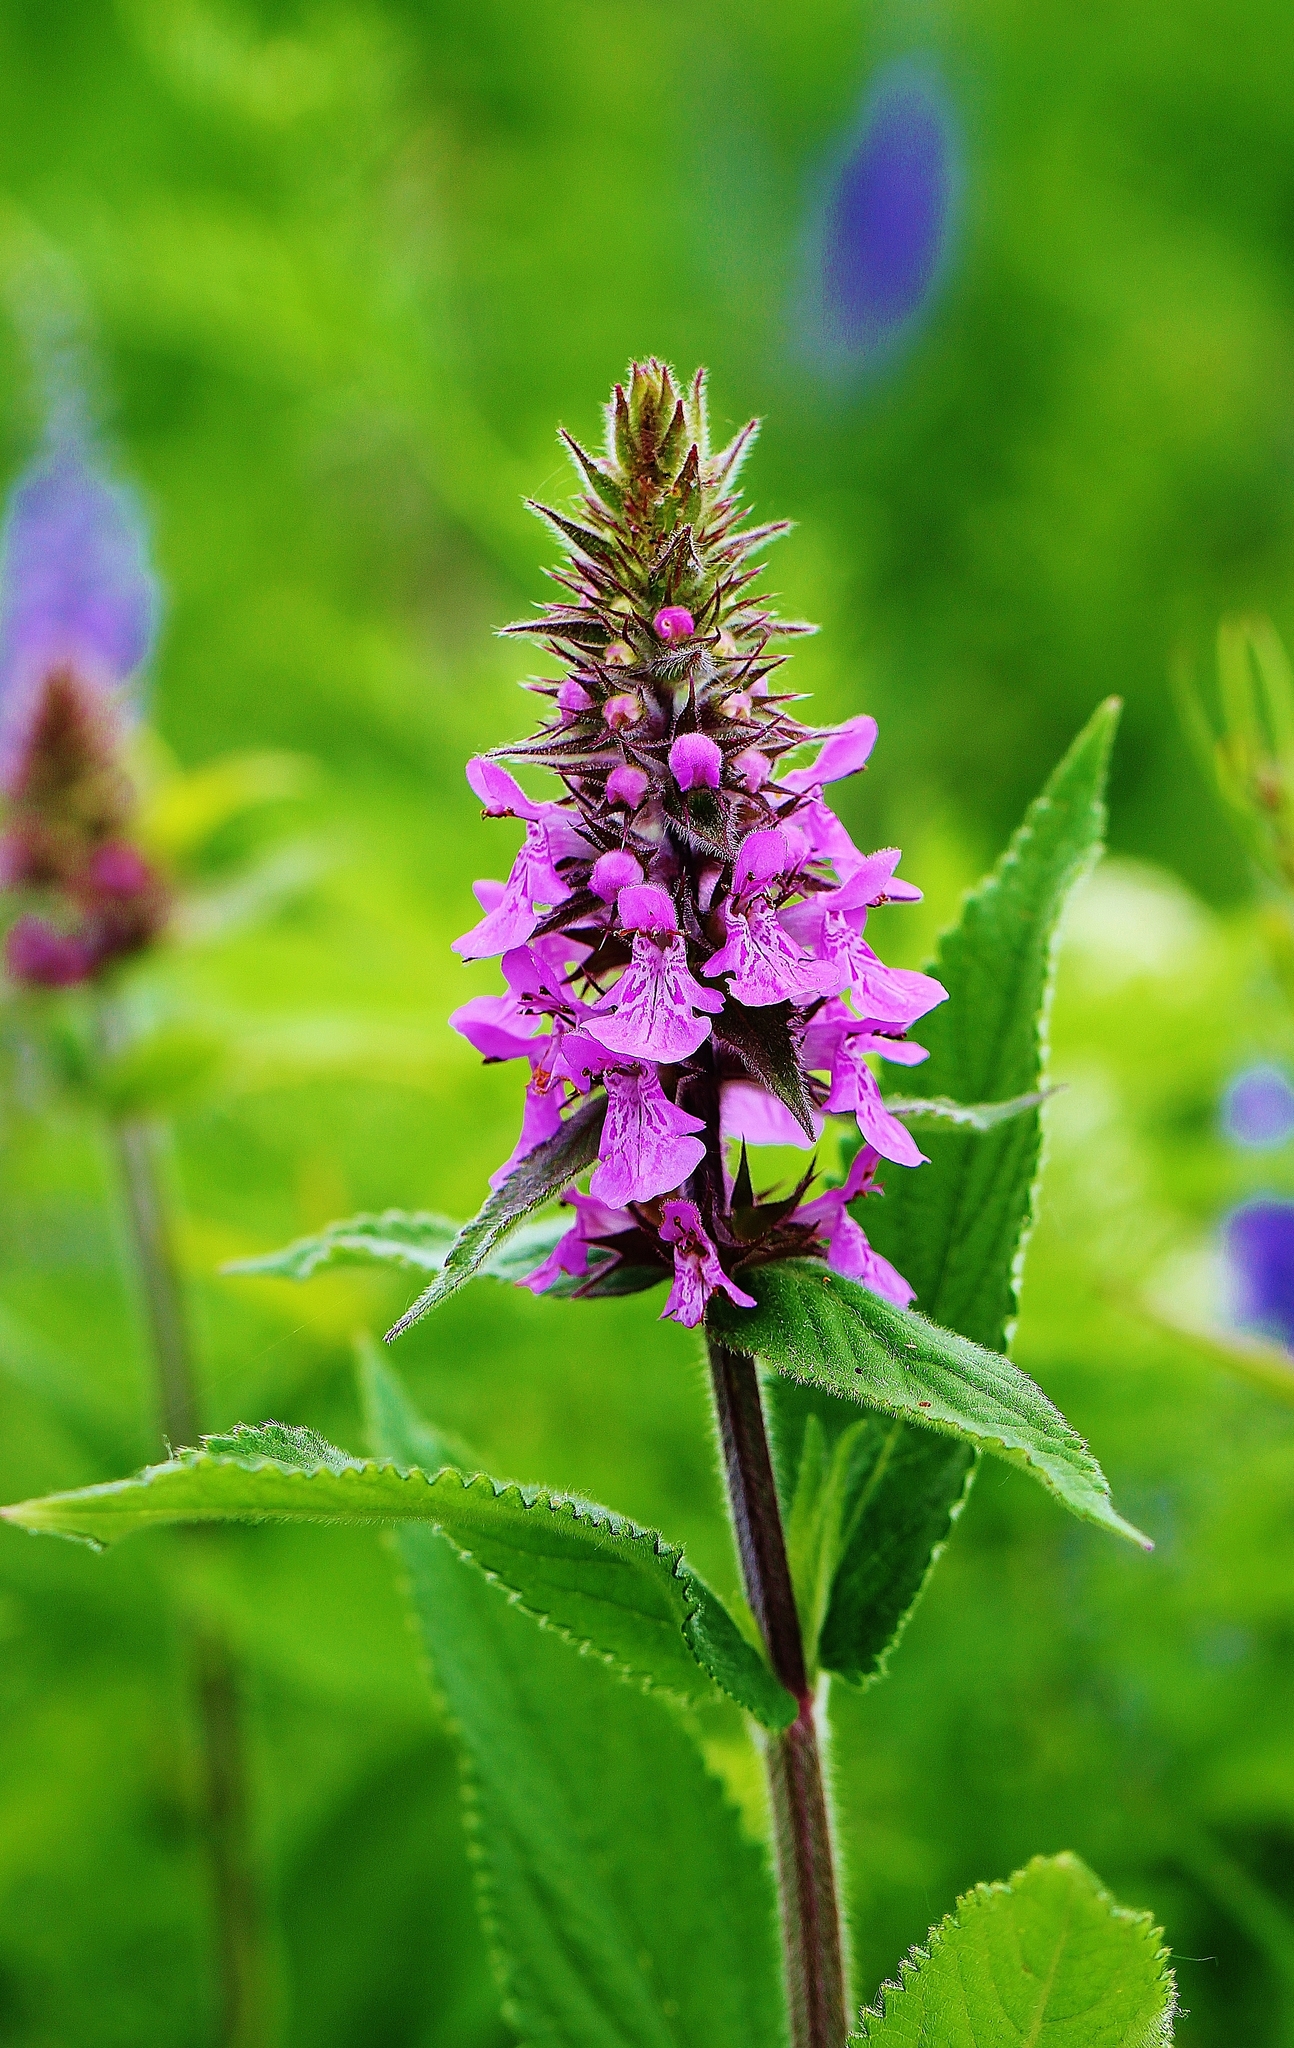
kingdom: Plantae
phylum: Tracheophyta
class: Magnoliopsida
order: Lamiales
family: Lamiaceae
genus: Stachys
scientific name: Stachys palustris
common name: Marsh woundwort
